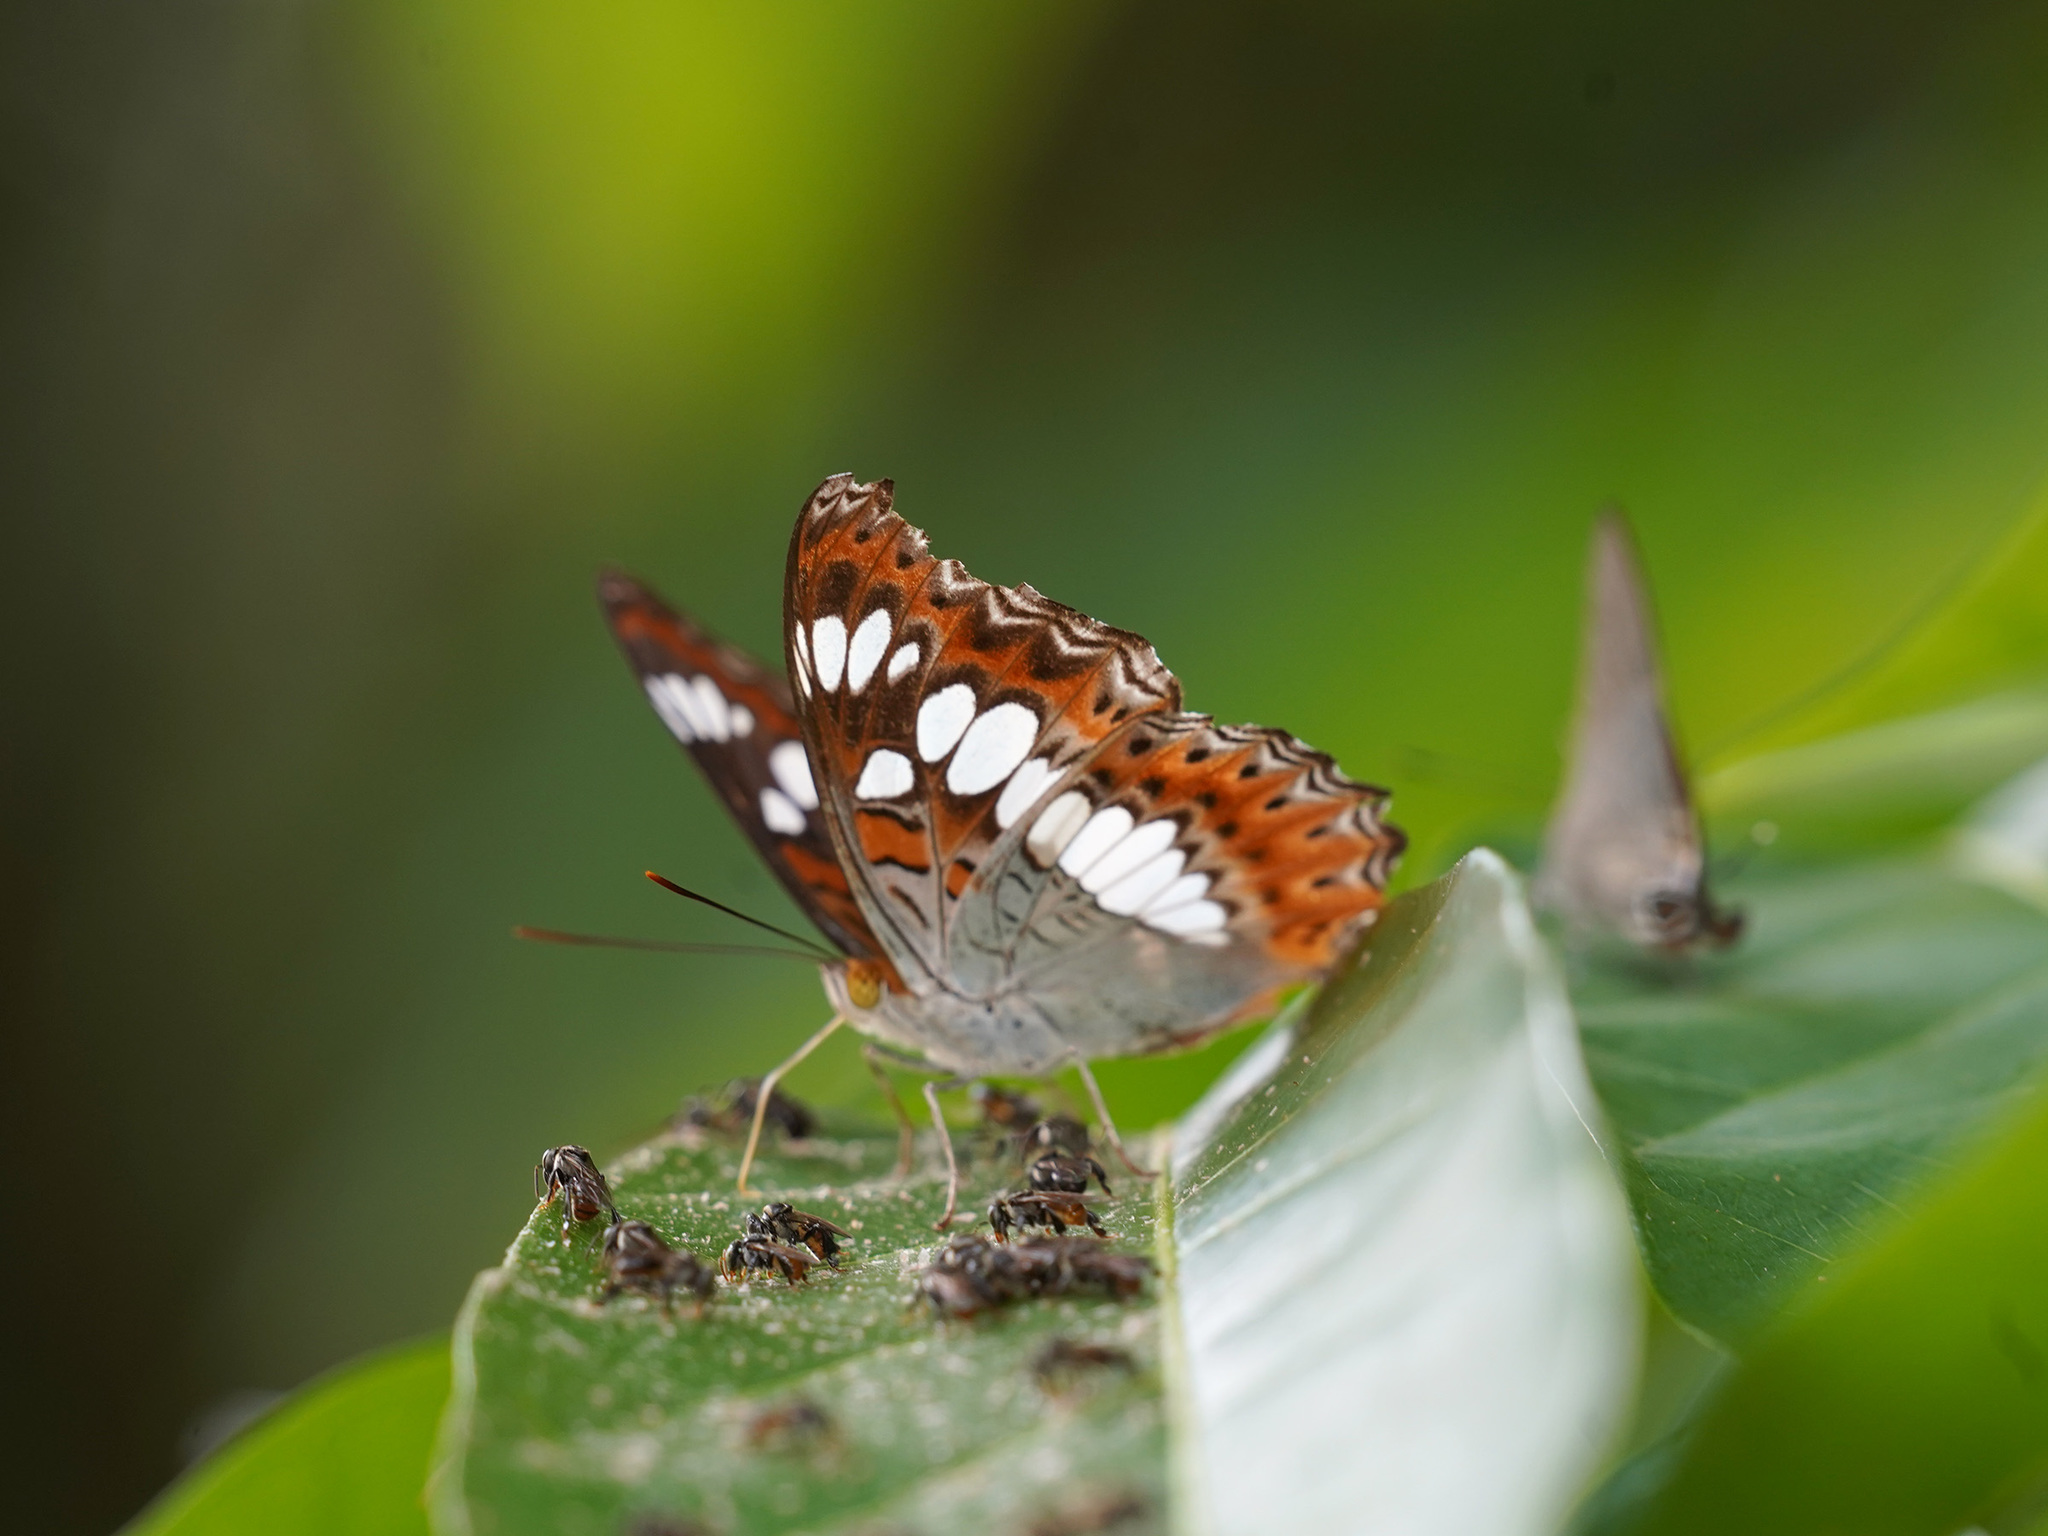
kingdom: Animalia
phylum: Arthropoda
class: Insecta
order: Lepidoptera
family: Nymphalidae
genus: Limenitis
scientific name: Limenitis Moduza procris
